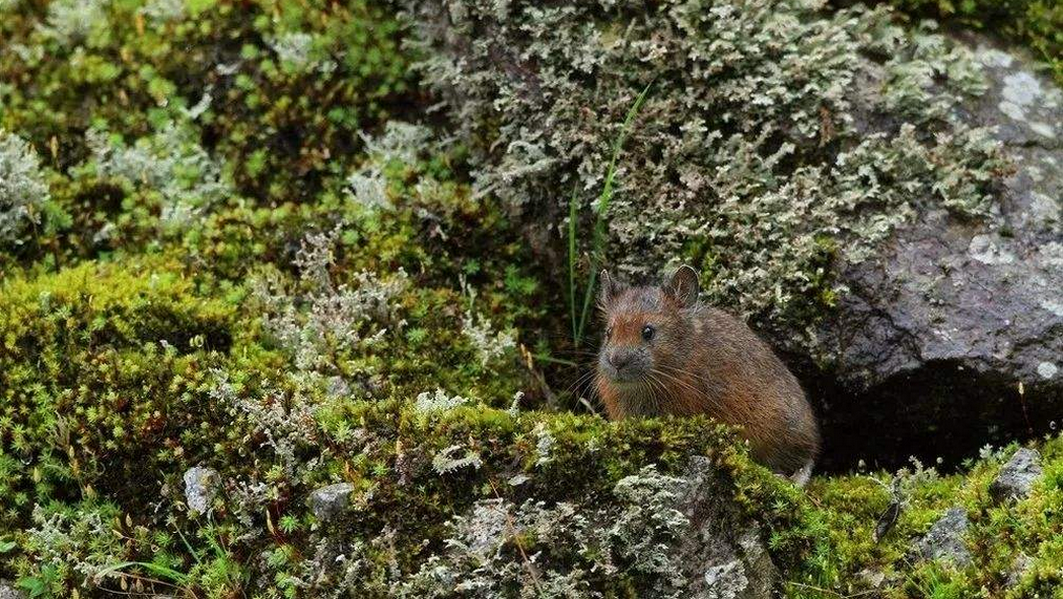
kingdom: Animalia
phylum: Chordata
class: Mammalia
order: Lagomorpha
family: Ochotonidae
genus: Ochotona
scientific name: Ochotona forresti
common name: Forrest's pika
